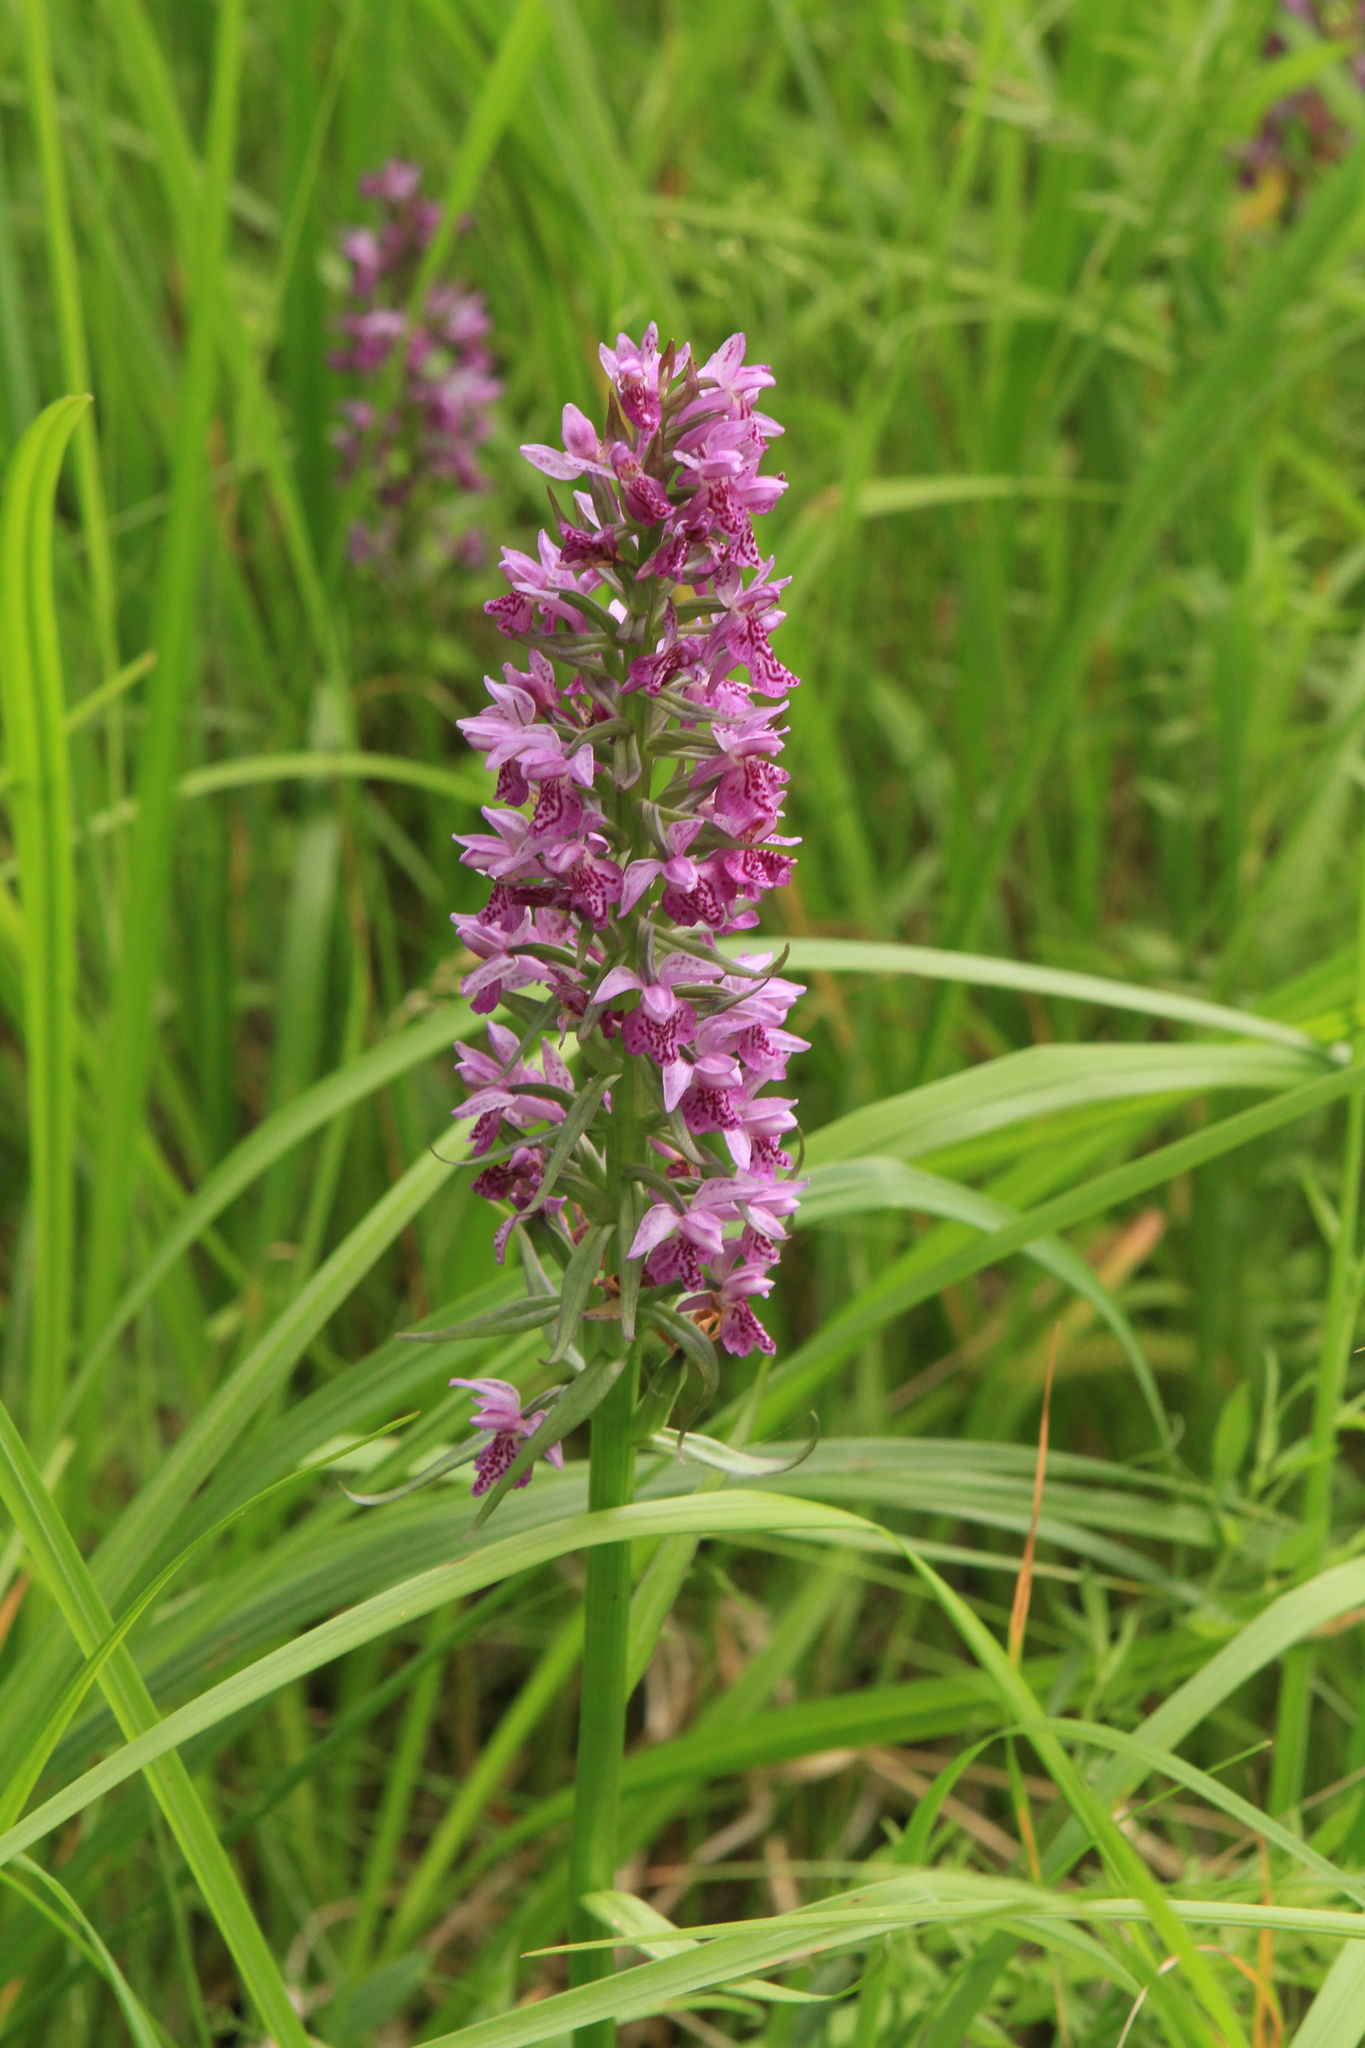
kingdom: Plantae
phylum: Tracheophyta
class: Liliopsida
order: Asparagales
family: Orchidaceae
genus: Dactylorhiza
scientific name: Dactylorhiza sibirica
